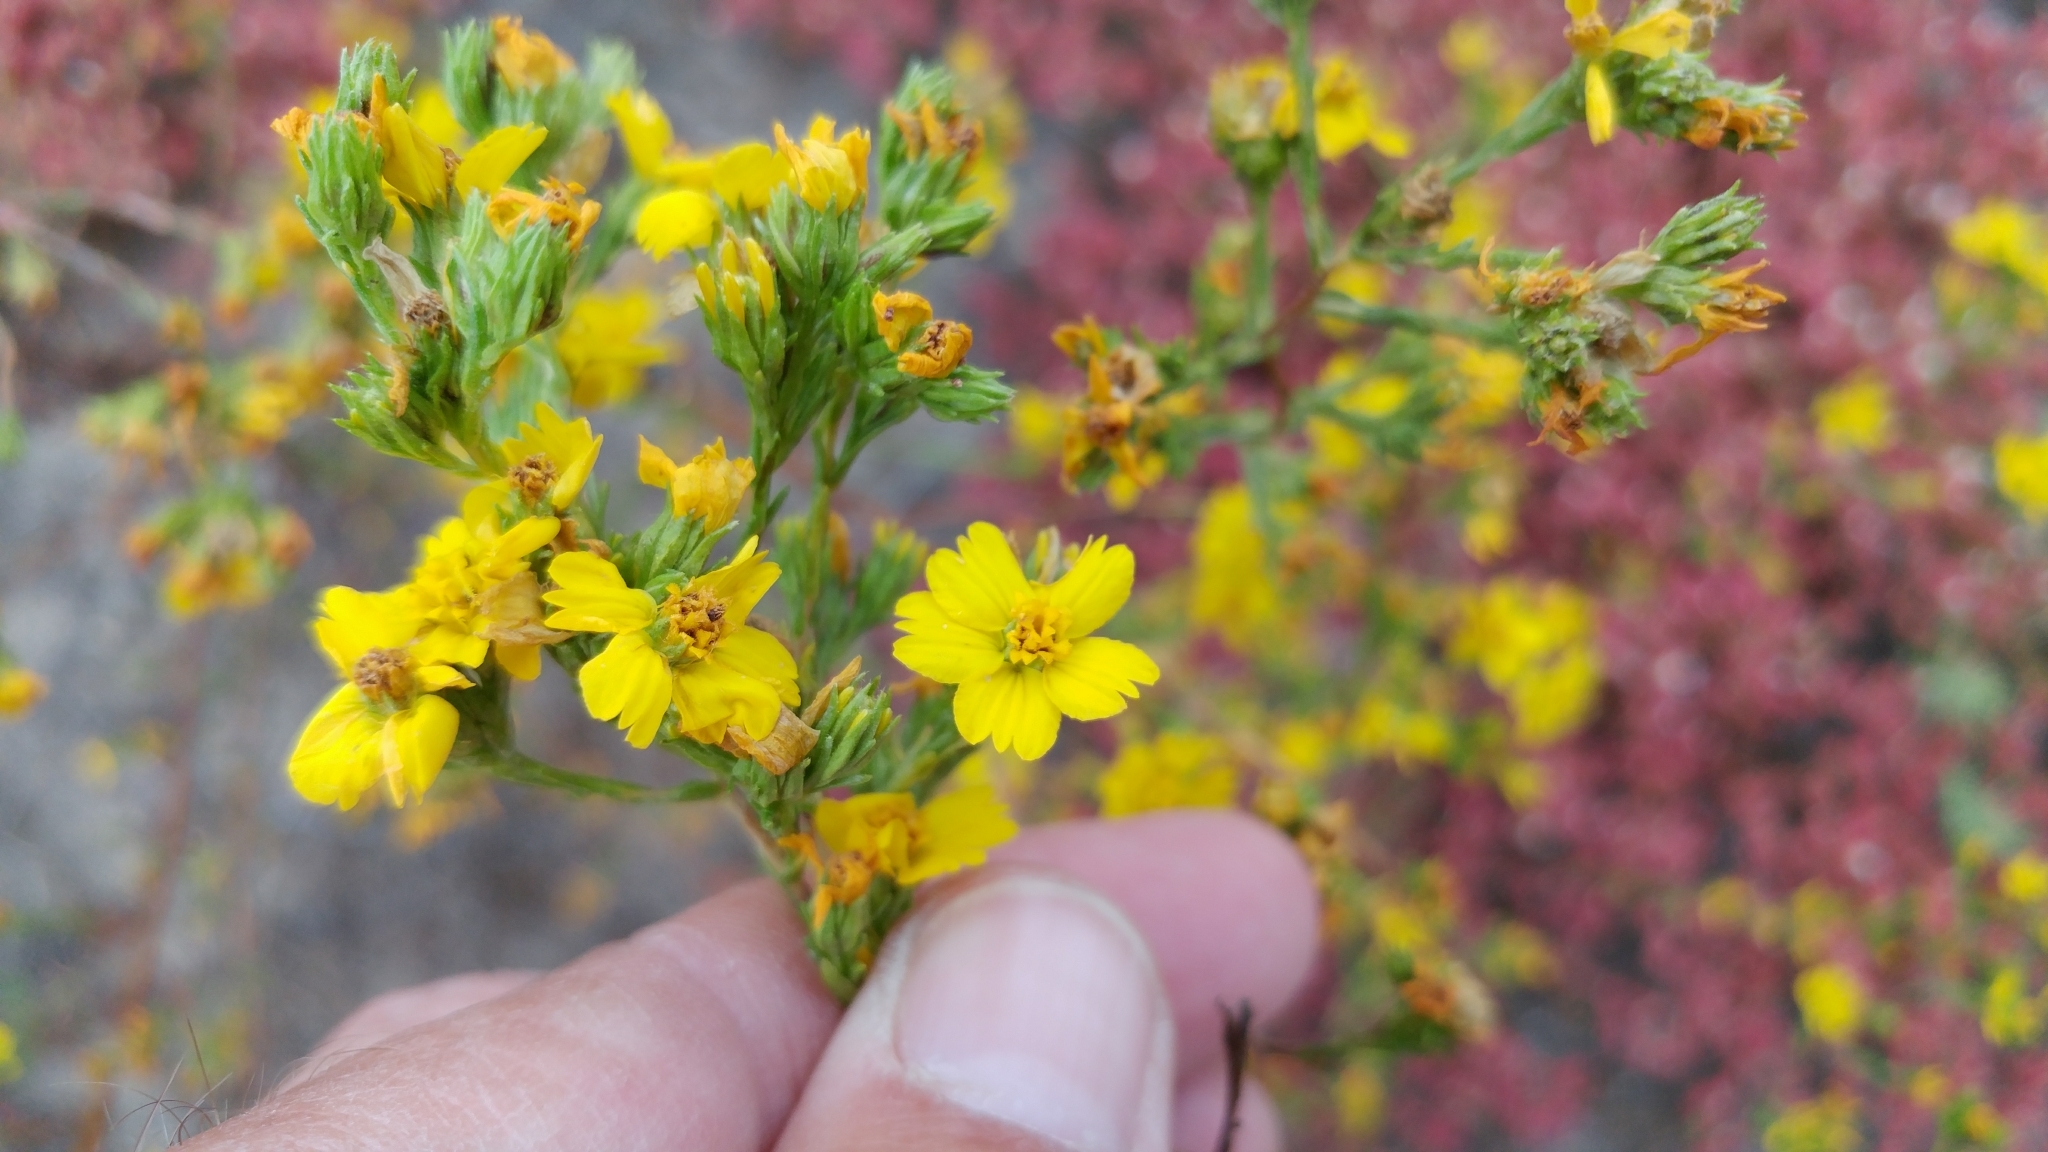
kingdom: Plantae
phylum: Tracheophyta
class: Magnoliopsida
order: Asterales
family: Asteraceae
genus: Deinandra
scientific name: Deinandra fasciculata
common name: Clustered tarweed
